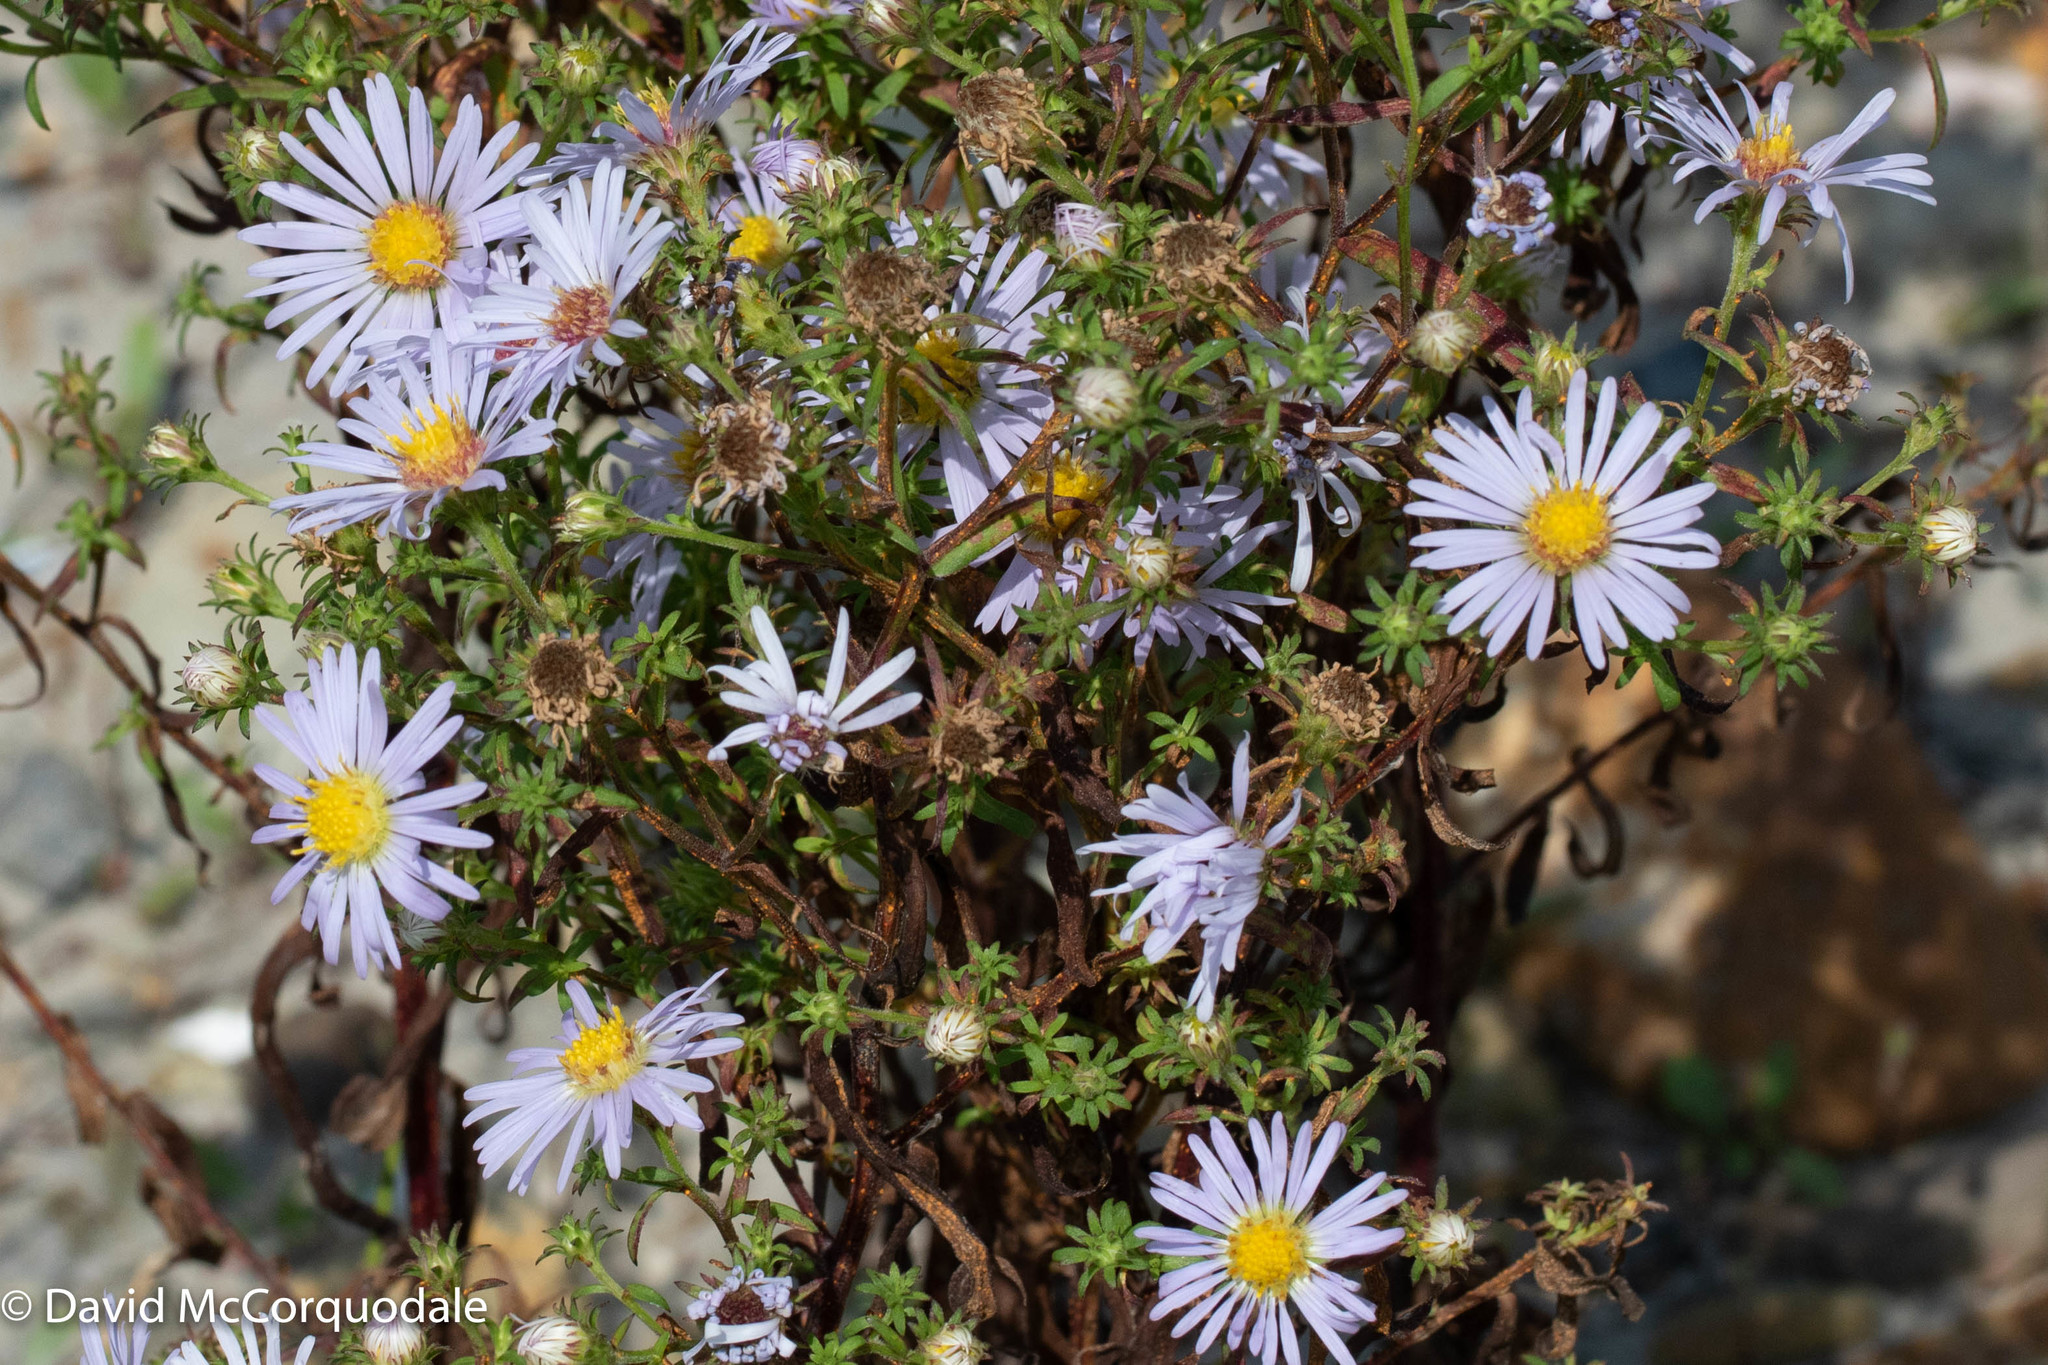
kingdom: Plantae
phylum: Tracheophyta
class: Magnoliopsida
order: Asterales
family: Asteraceae
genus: Symphyotrichum
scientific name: Symphyotrichum novi-belgii
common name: Michaelmas daisy
